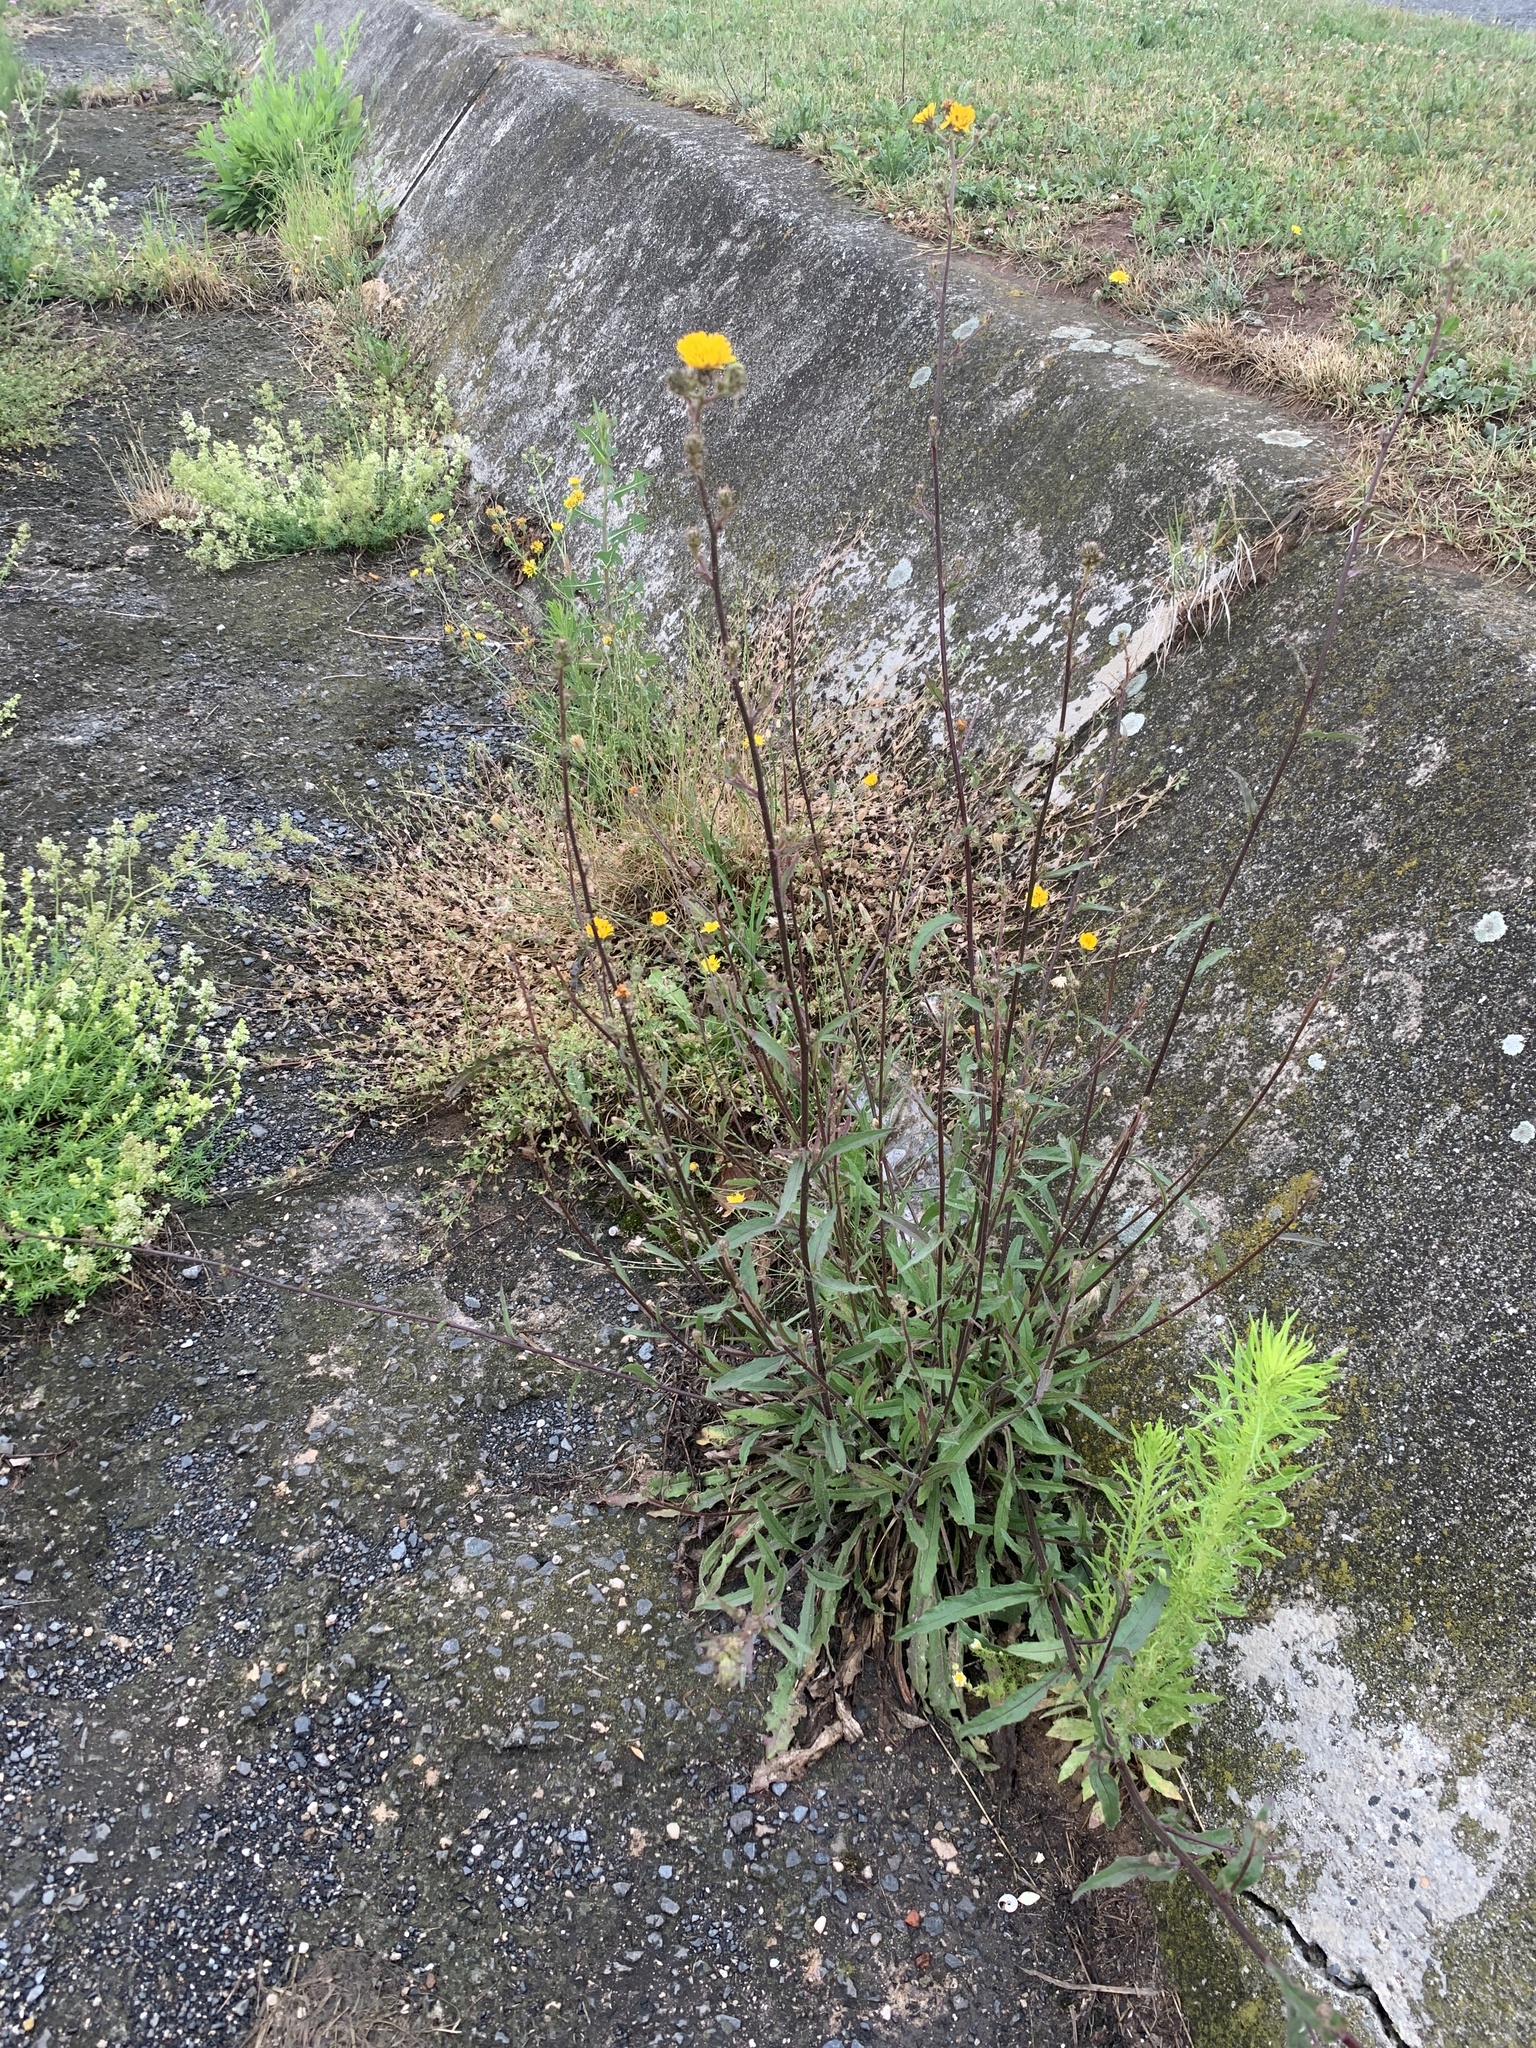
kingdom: Plantae
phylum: Tracheophyta
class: Magnoliopsida
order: Asterales
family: Asteraceae
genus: Picris
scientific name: Picris hieracioides
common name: Hawkweed oxtongue
